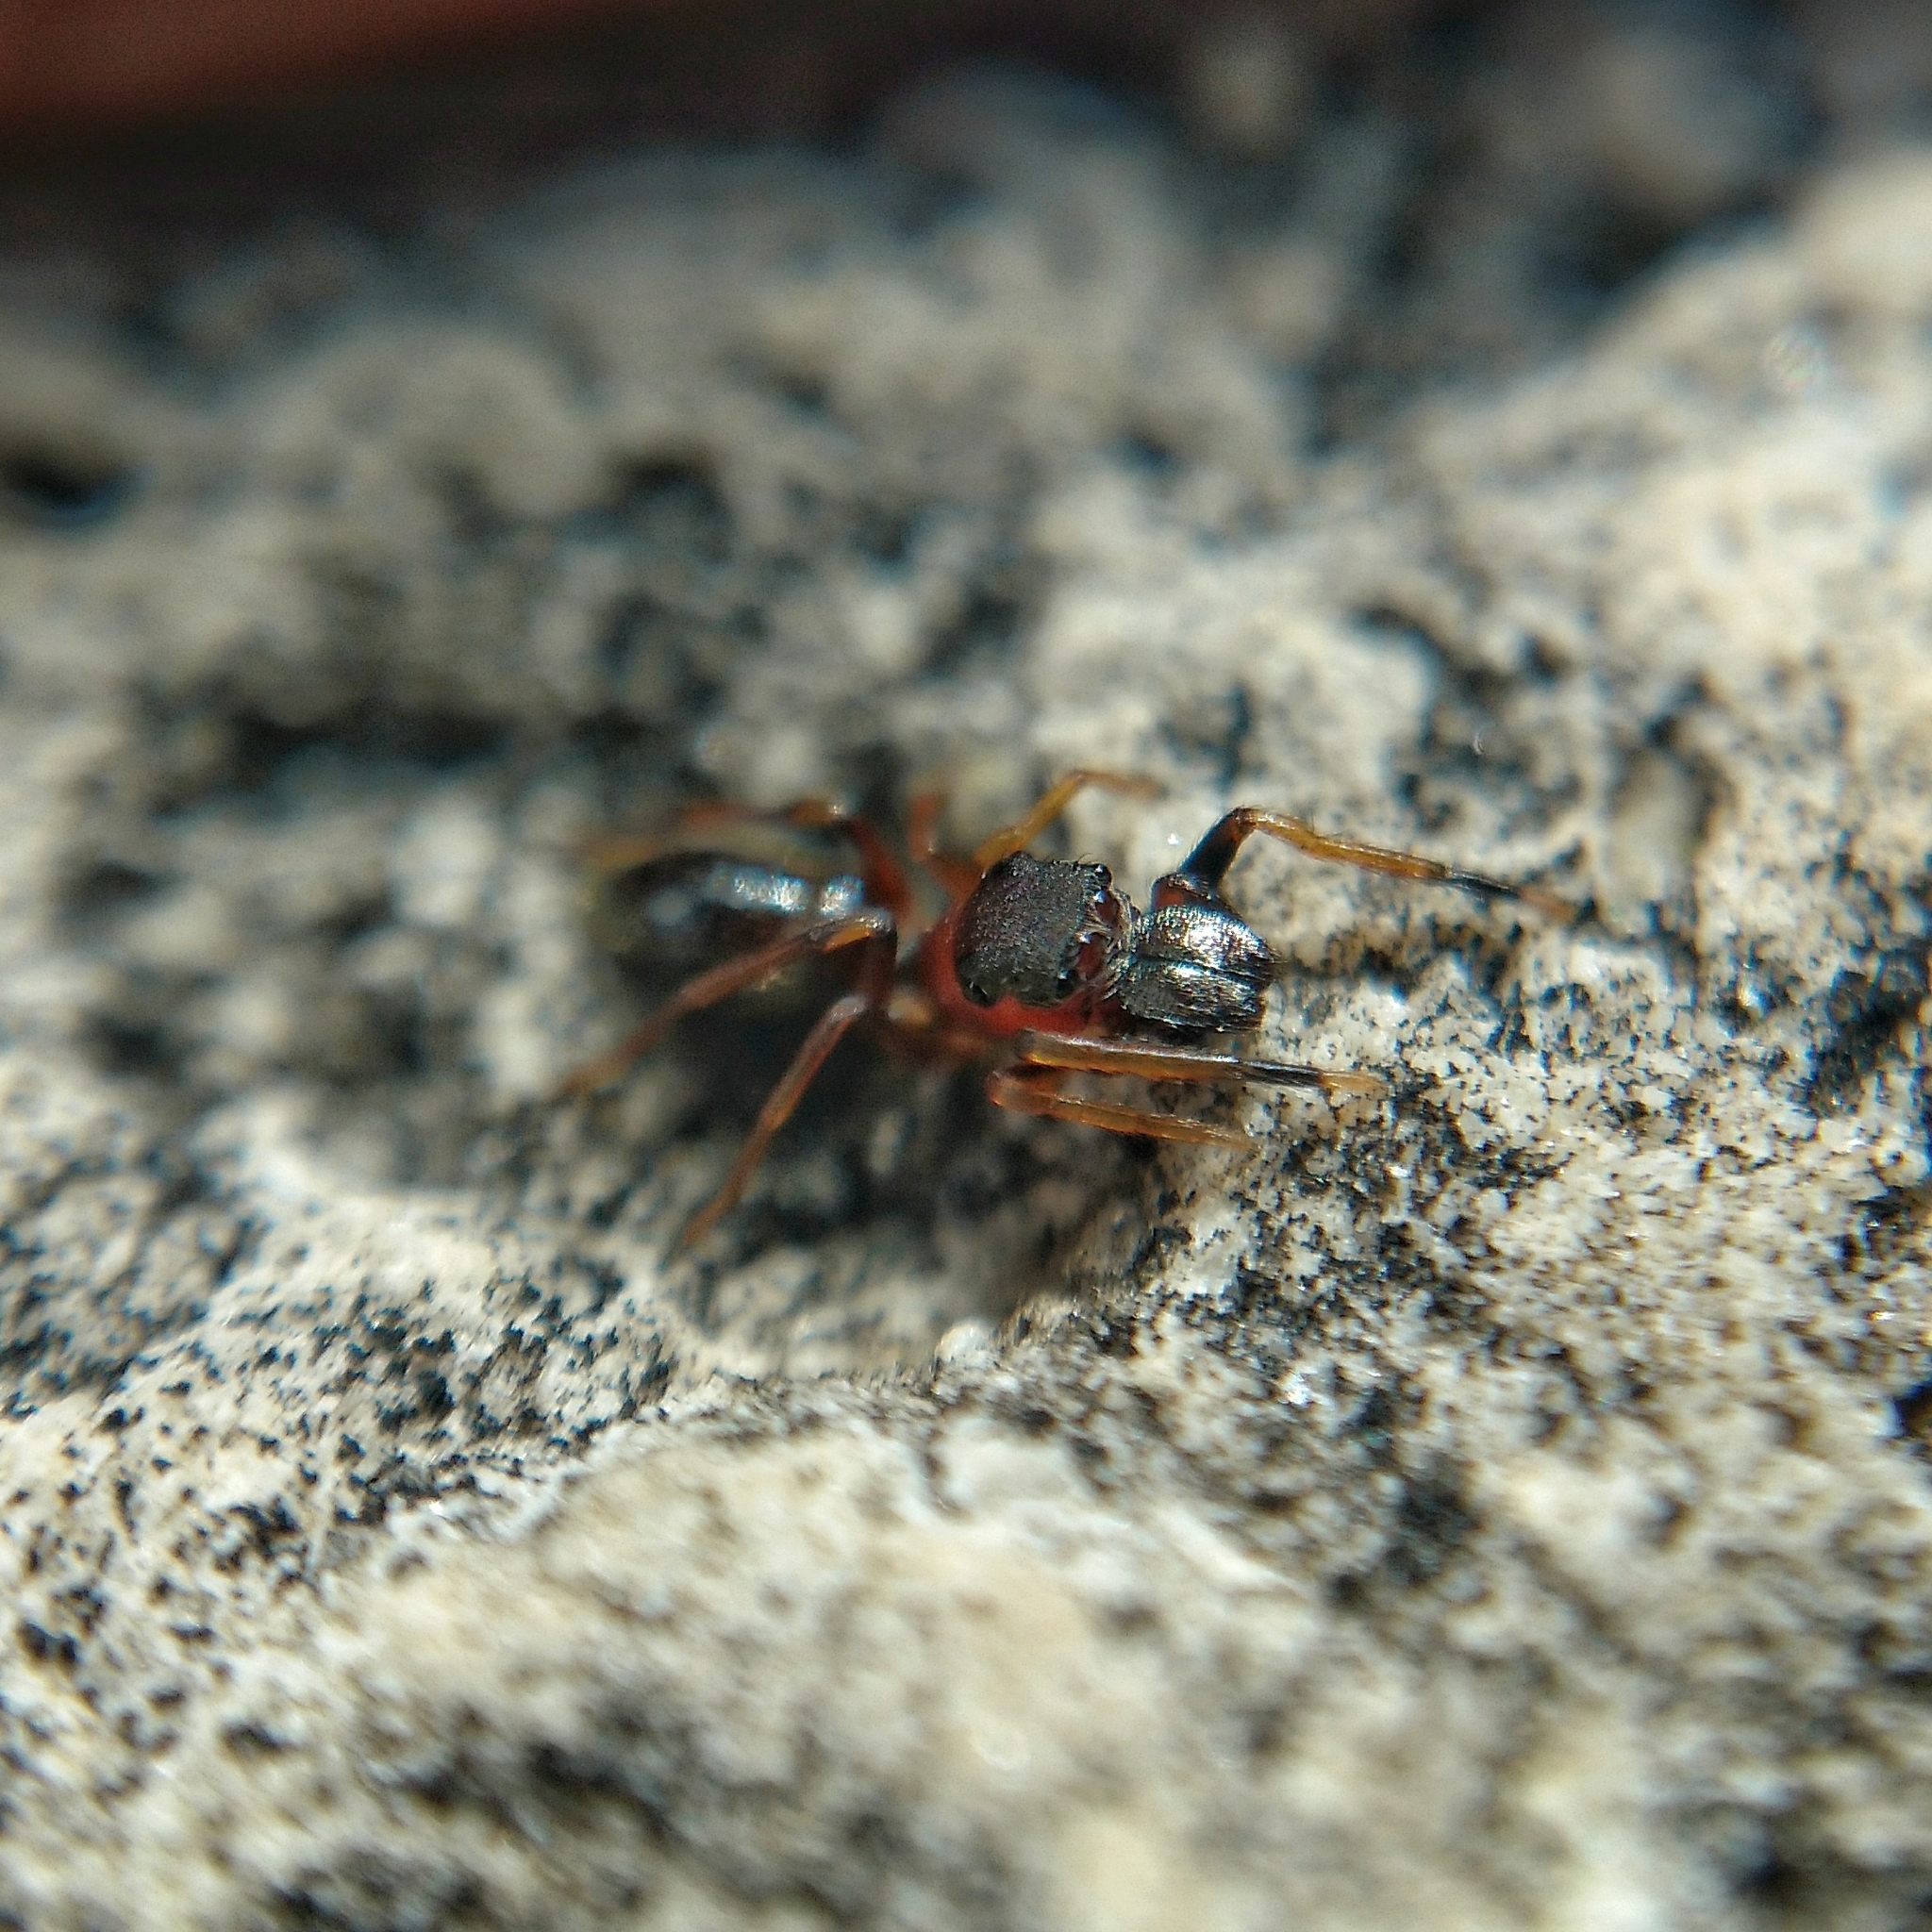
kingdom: Animalia
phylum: Arthropoda
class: Arachnida
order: Araneae
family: Salticidae
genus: Myrmarachne
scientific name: Myrmarachne formicaria
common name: Ant mimic jumping spider
